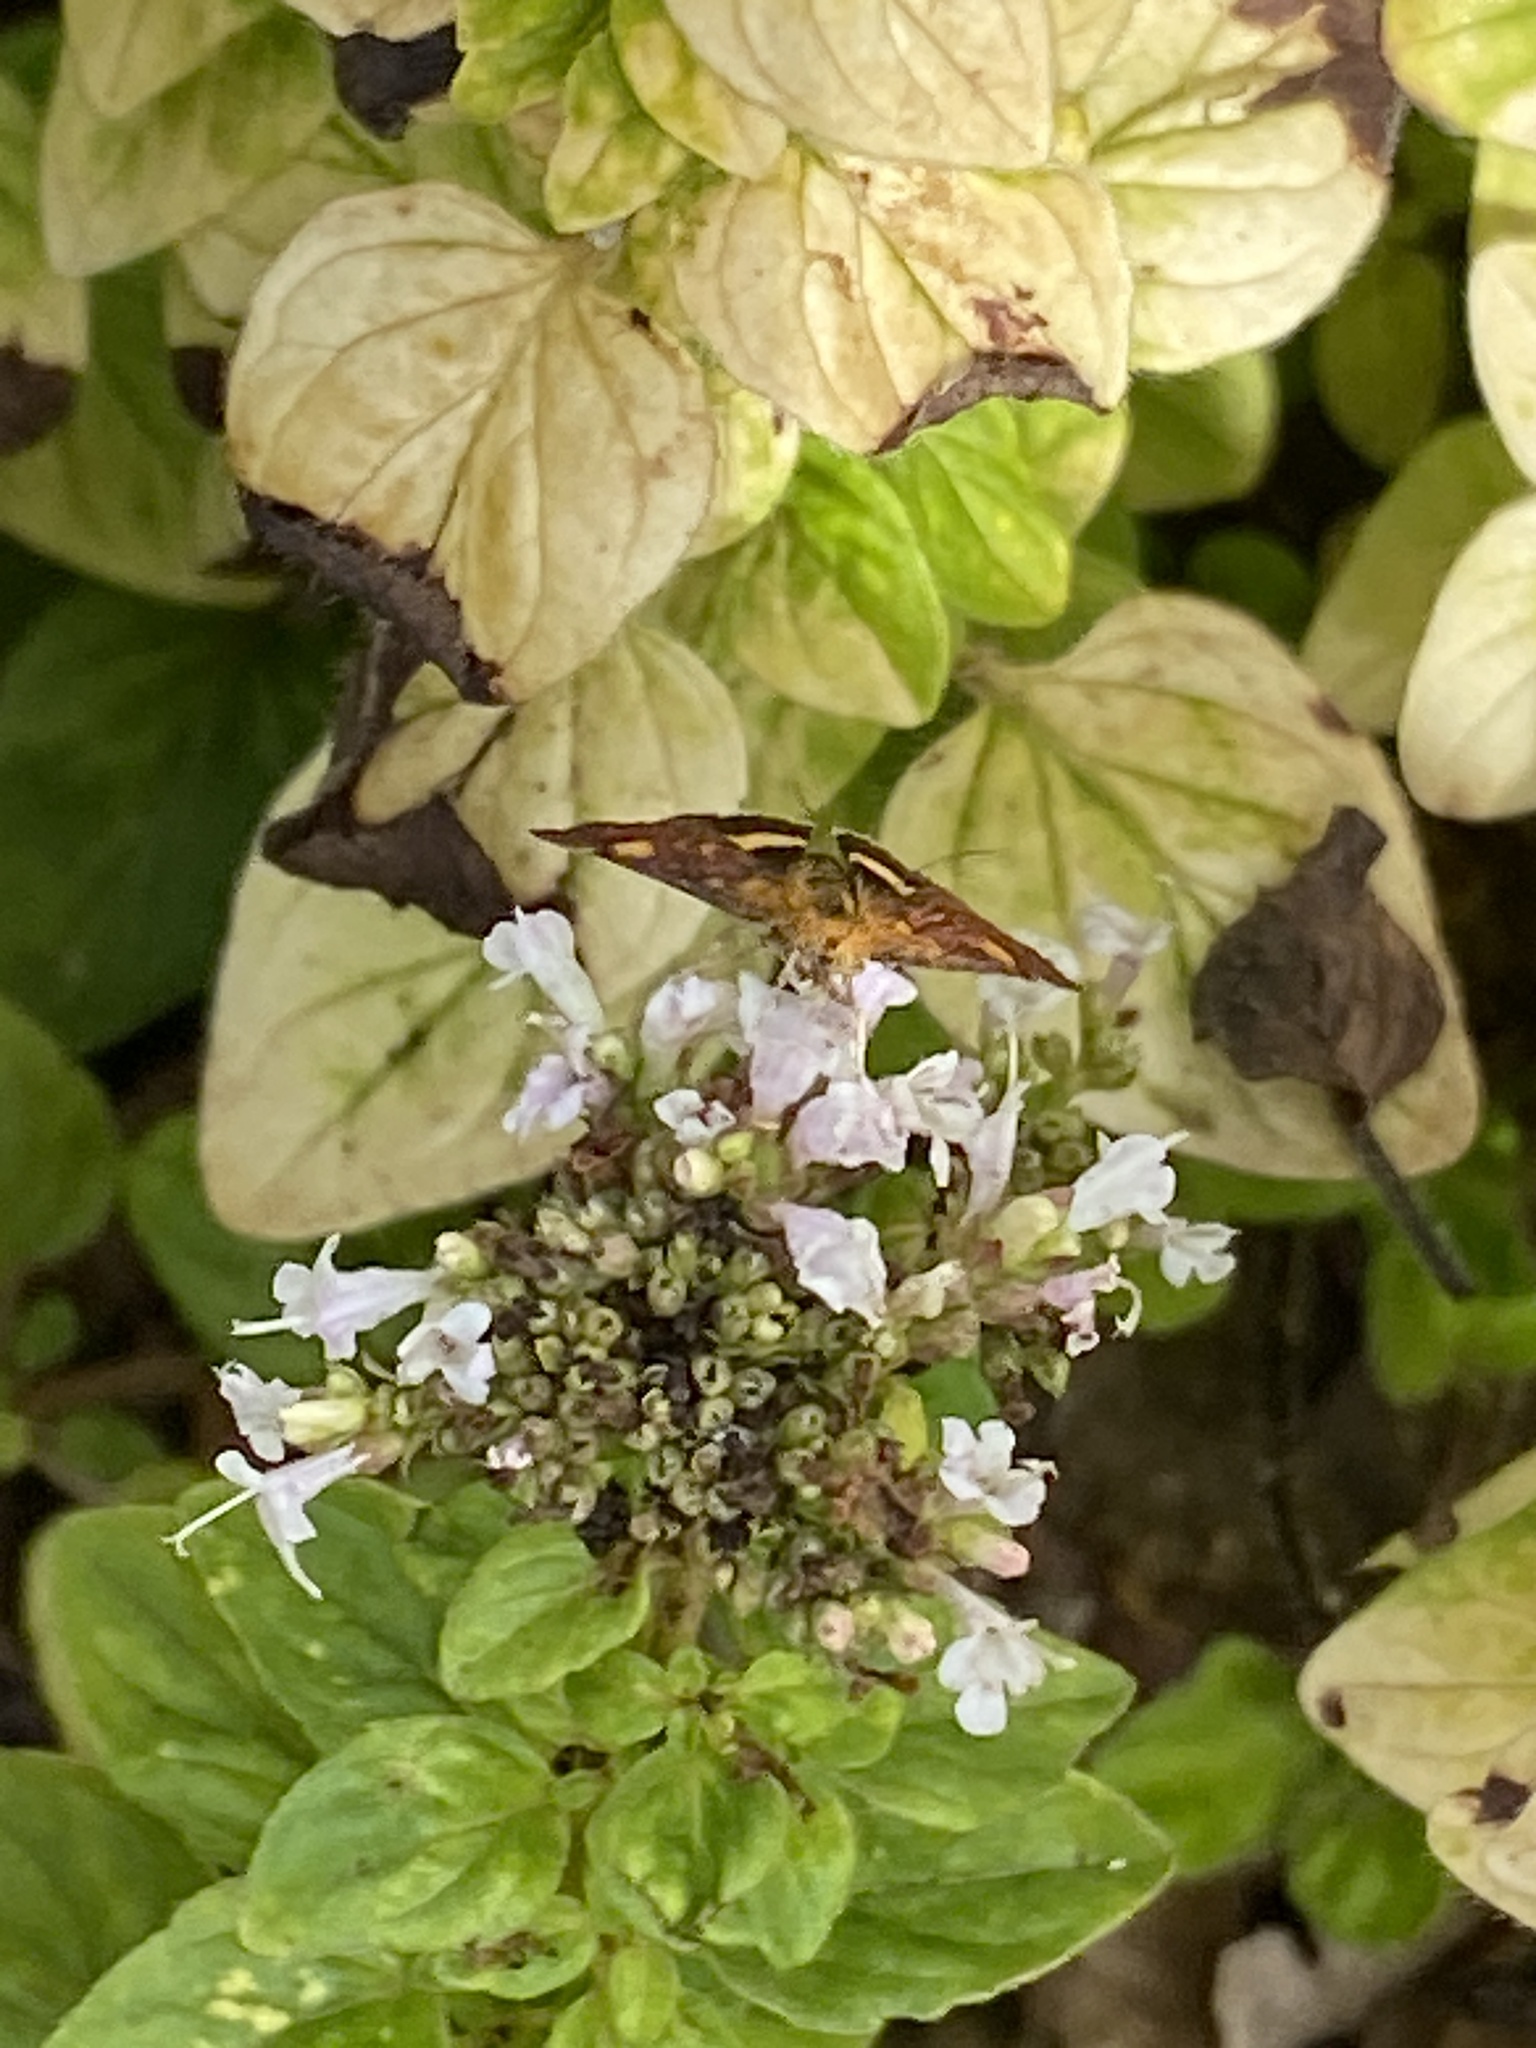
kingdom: Animalia
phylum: Arthropoda
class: Insecta
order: Lepidoptera
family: Crambidae
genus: Pyrausta
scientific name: Pyrausta aurata
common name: Small purple & gold
